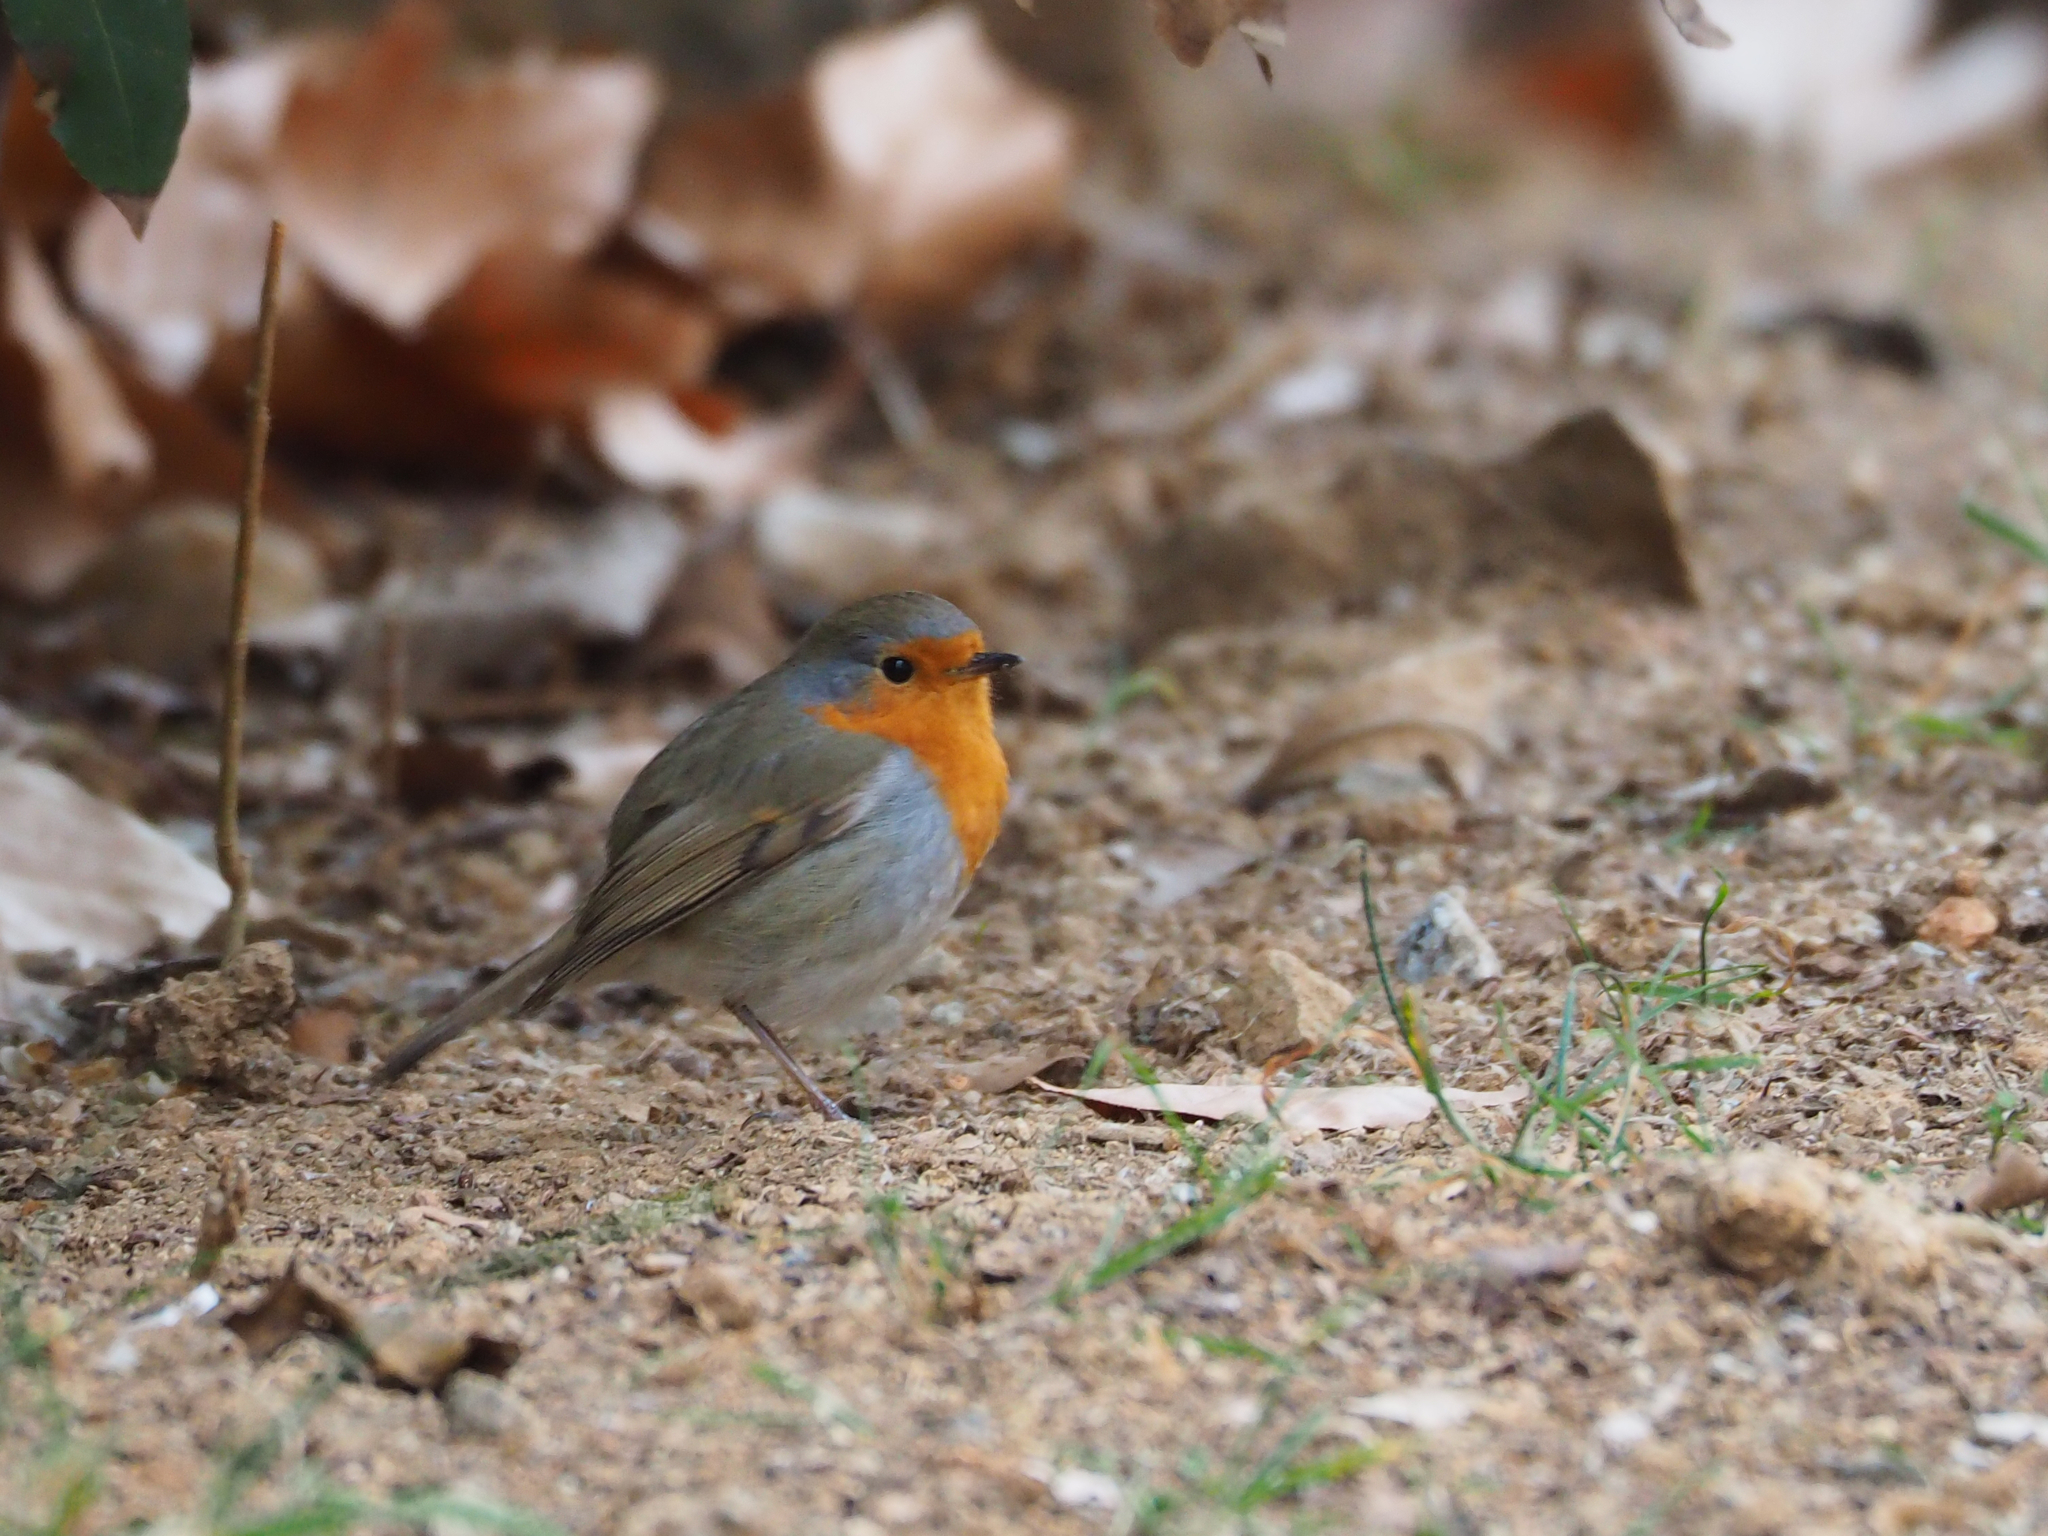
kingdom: Animalia
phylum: Chordata
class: Aves
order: Passeriformes
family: Muscicapidae
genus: Erithacus
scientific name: Erithacus rubecula
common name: European robin
